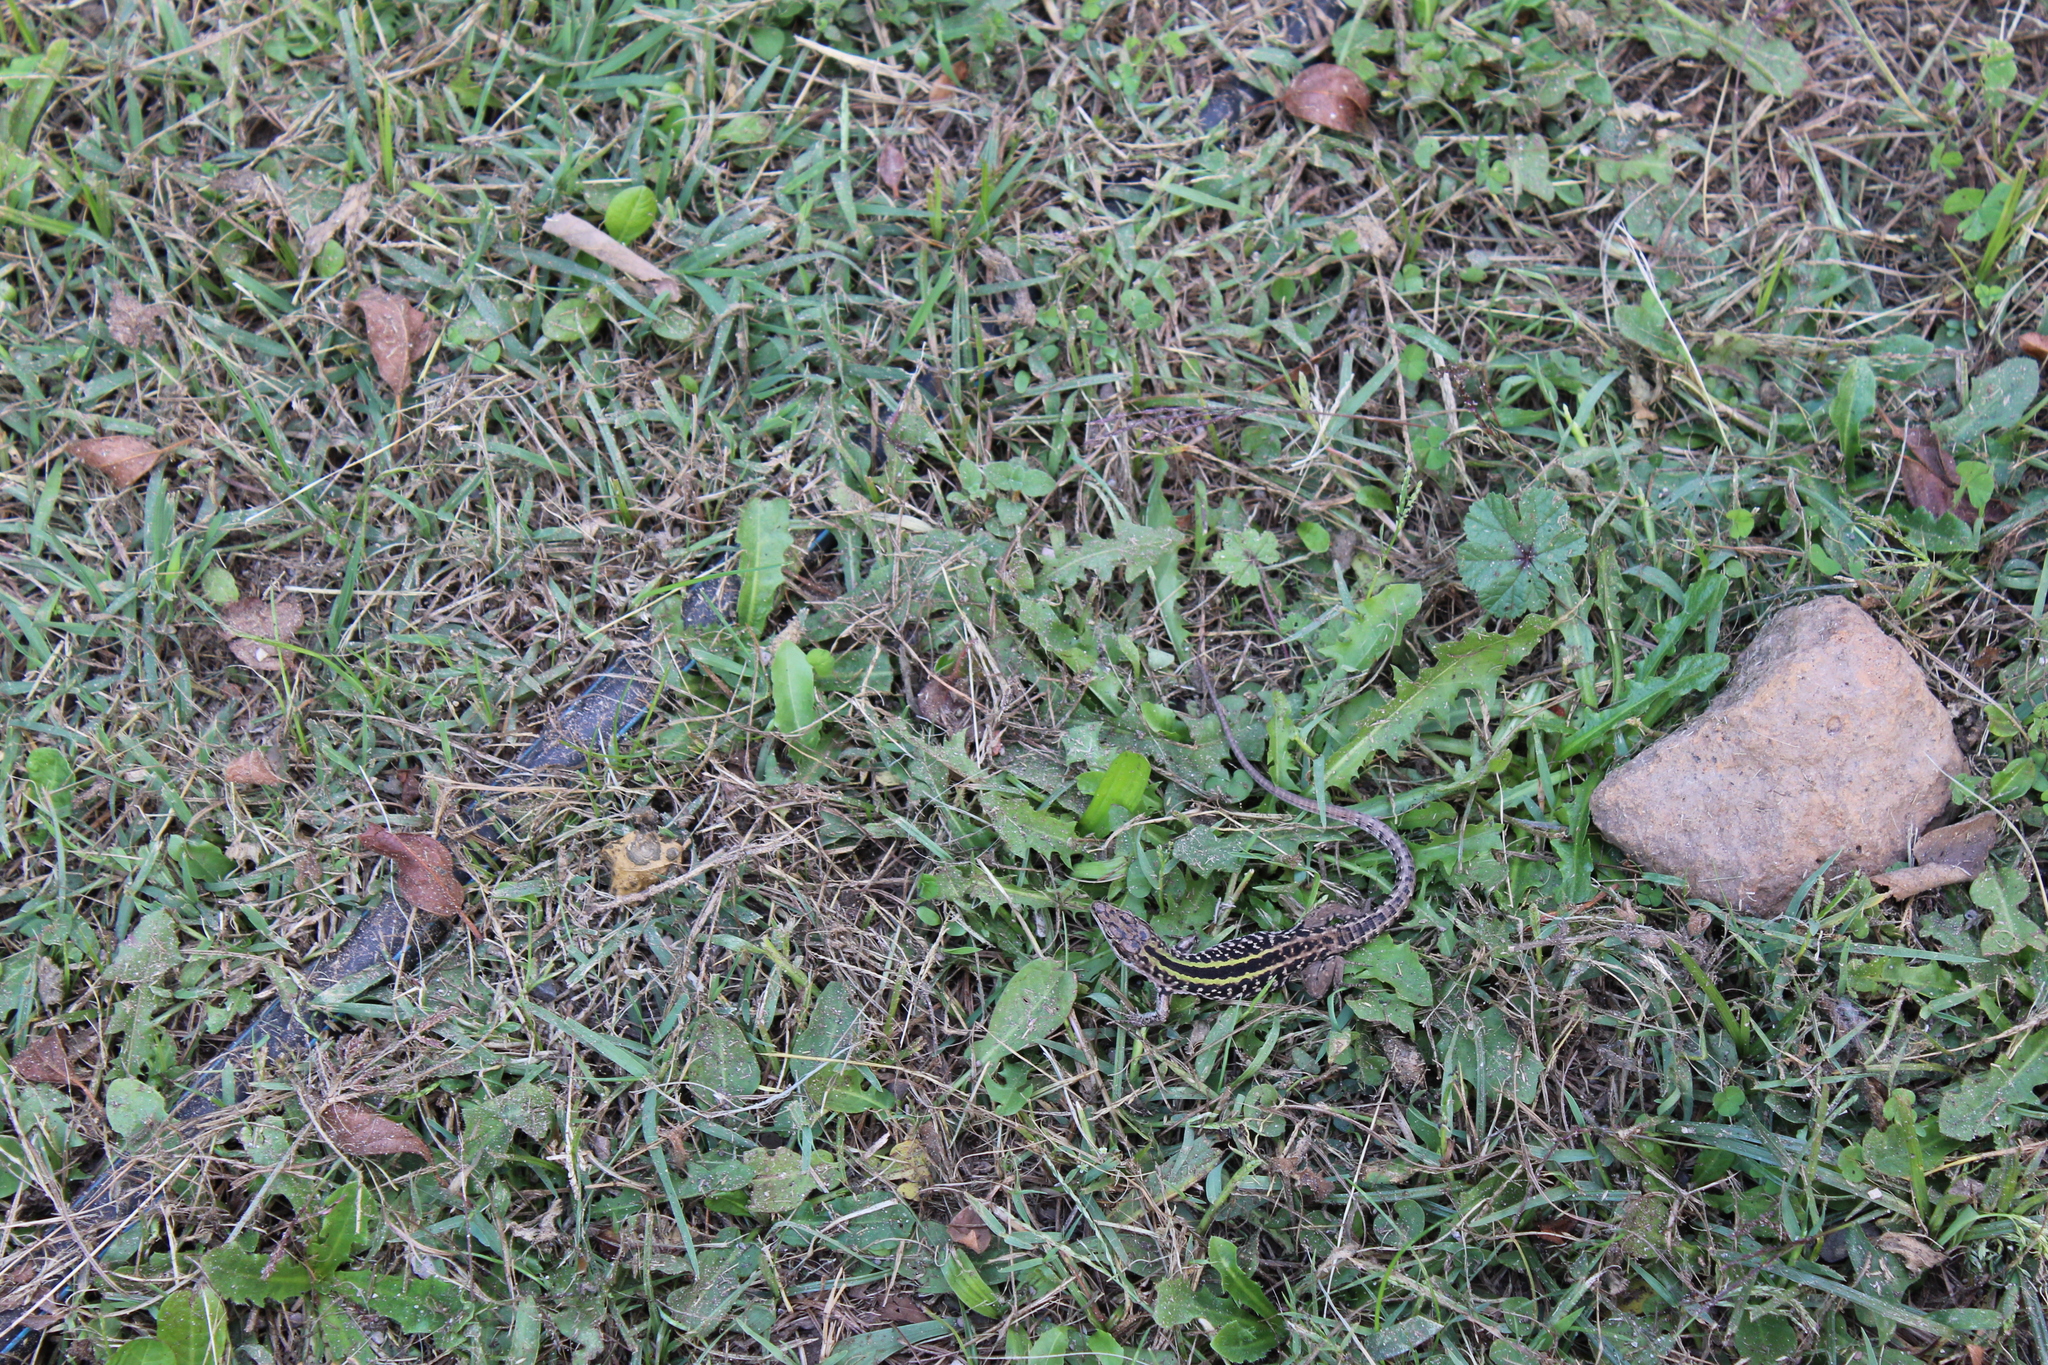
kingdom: Animalia
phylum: Chordata
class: Squamata
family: Lacertidae
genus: Podarcis
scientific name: Podarcis siculus
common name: Italian wall lizard
